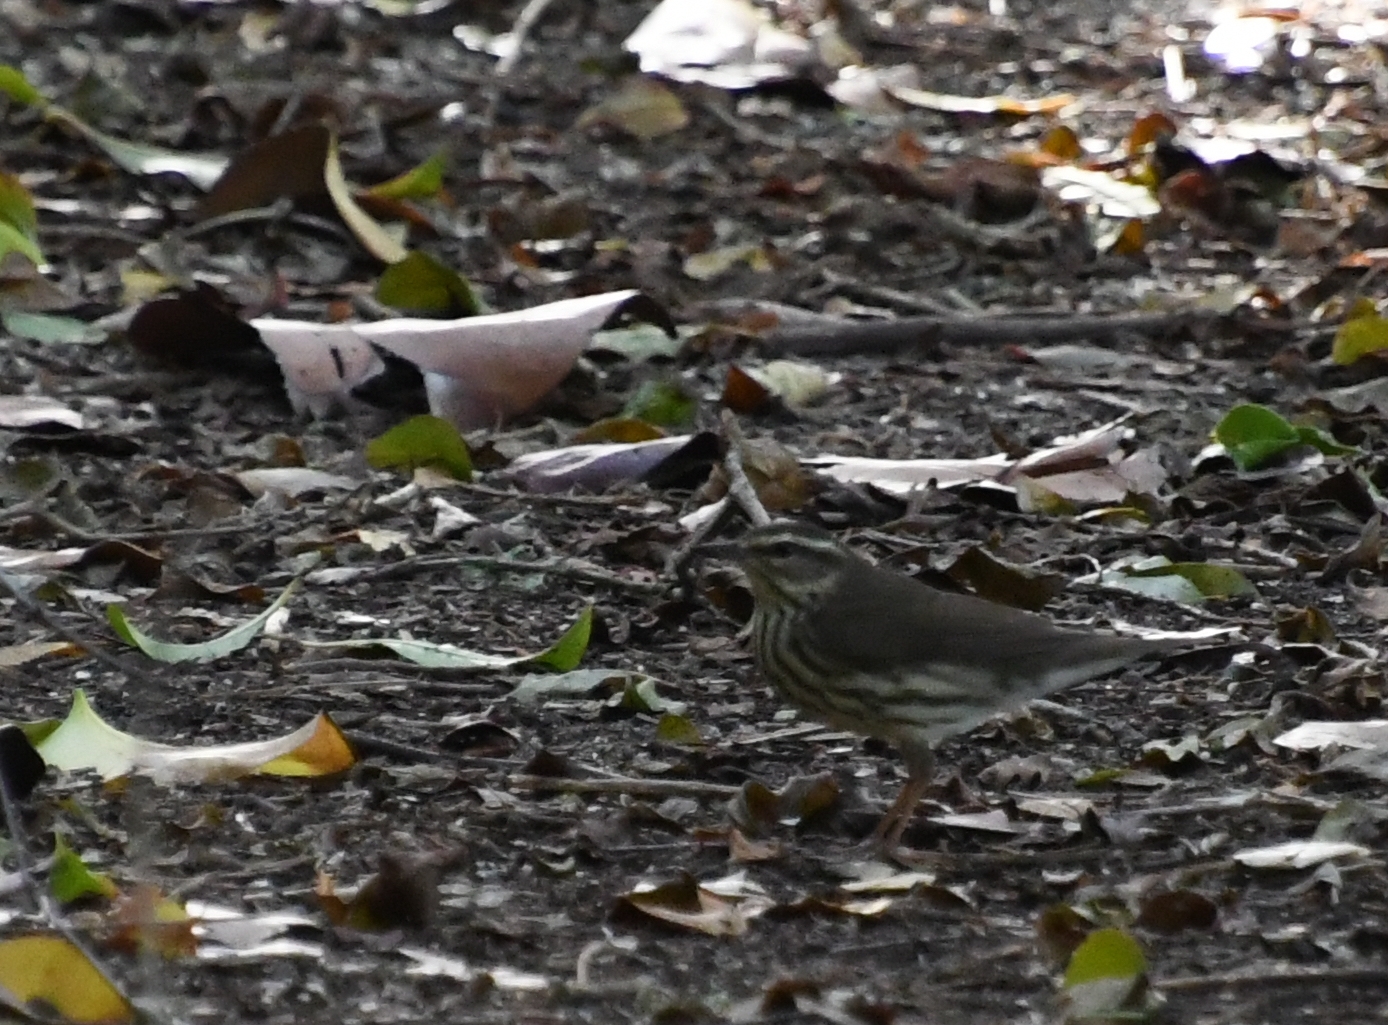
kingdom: Animalia
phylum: Chordata
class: Aves
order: Passeriformes
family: Parulidae
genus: Parkesia
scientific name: Parkesia noveboracensis
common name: Northern waterthrush
